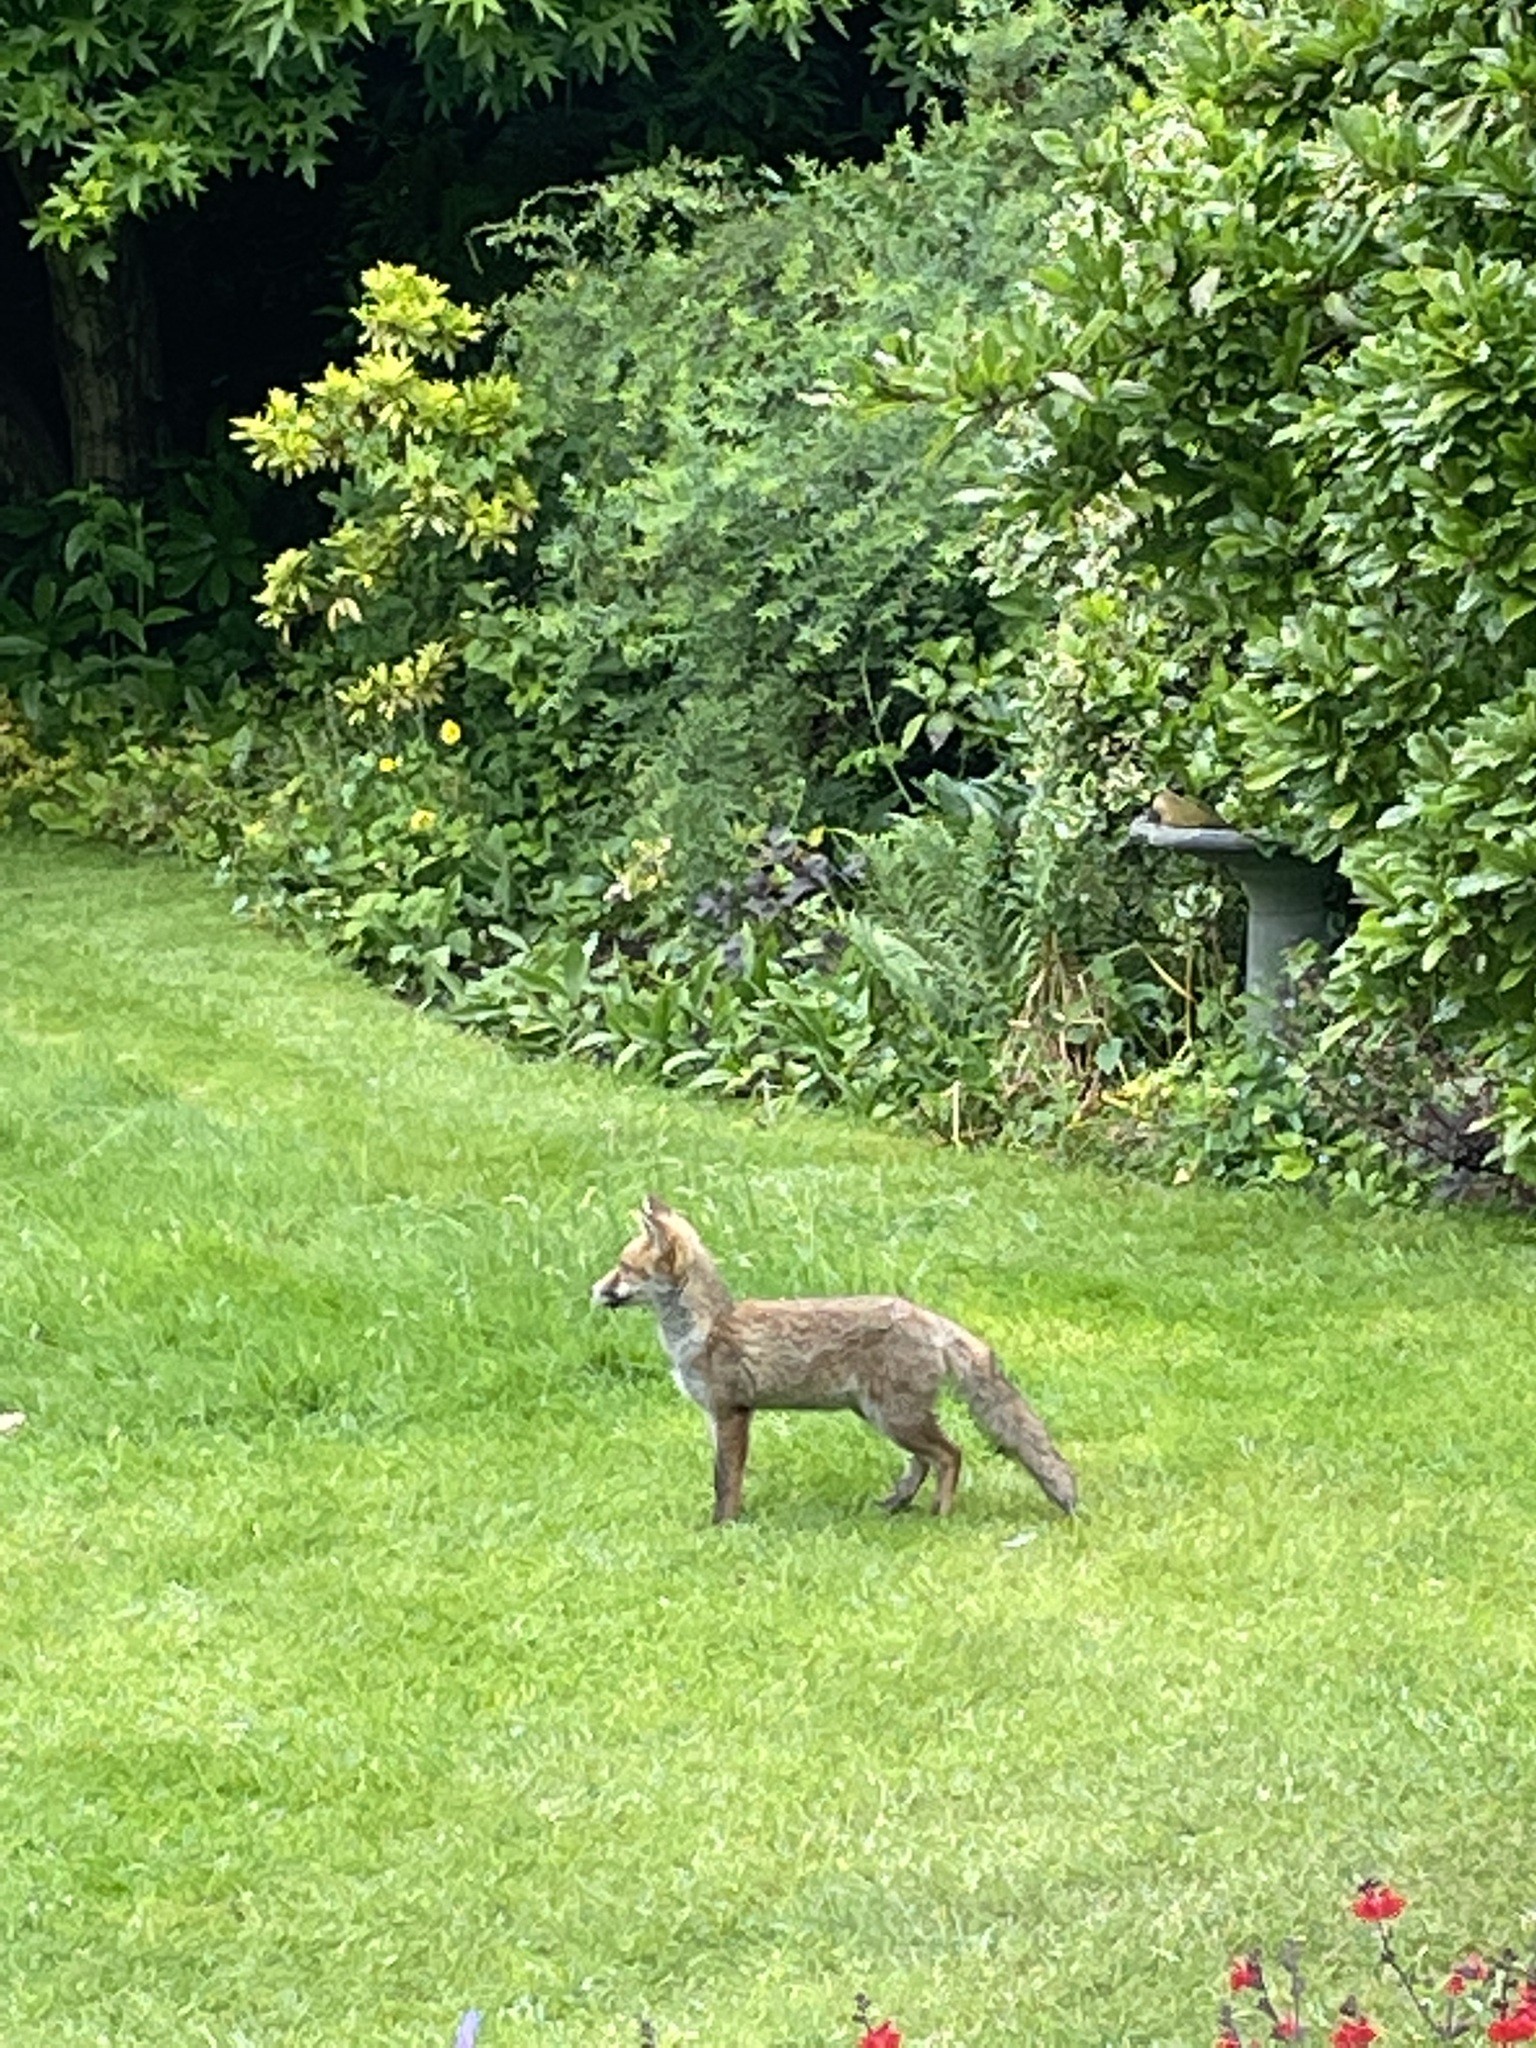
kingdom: Animalia
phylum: Chordata
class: Mammalia
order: Carnivora
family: Canidae
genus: Vulpes
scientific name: Vulpes vulpes
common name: Red fox
